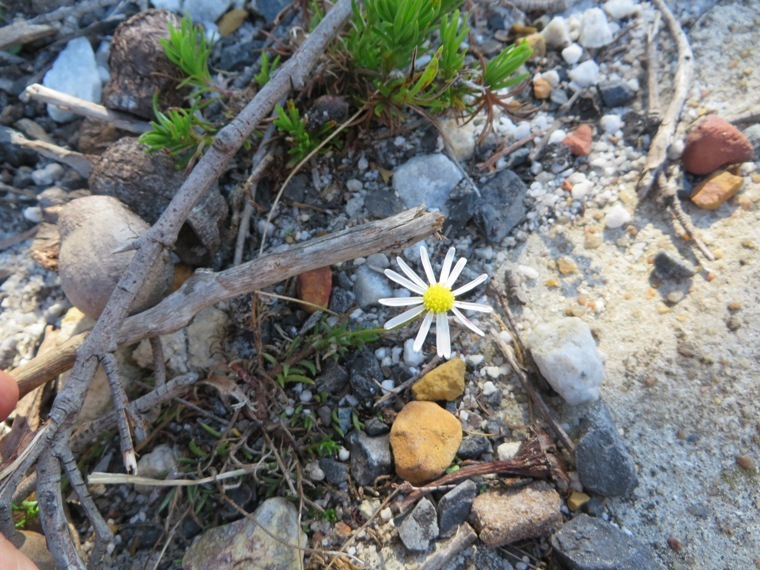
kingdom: Plantae
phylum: Tracheophyta
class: Magnoliopsida
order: Asterales
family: Asteraceae
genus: Felicia
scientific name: Felicia tenella
